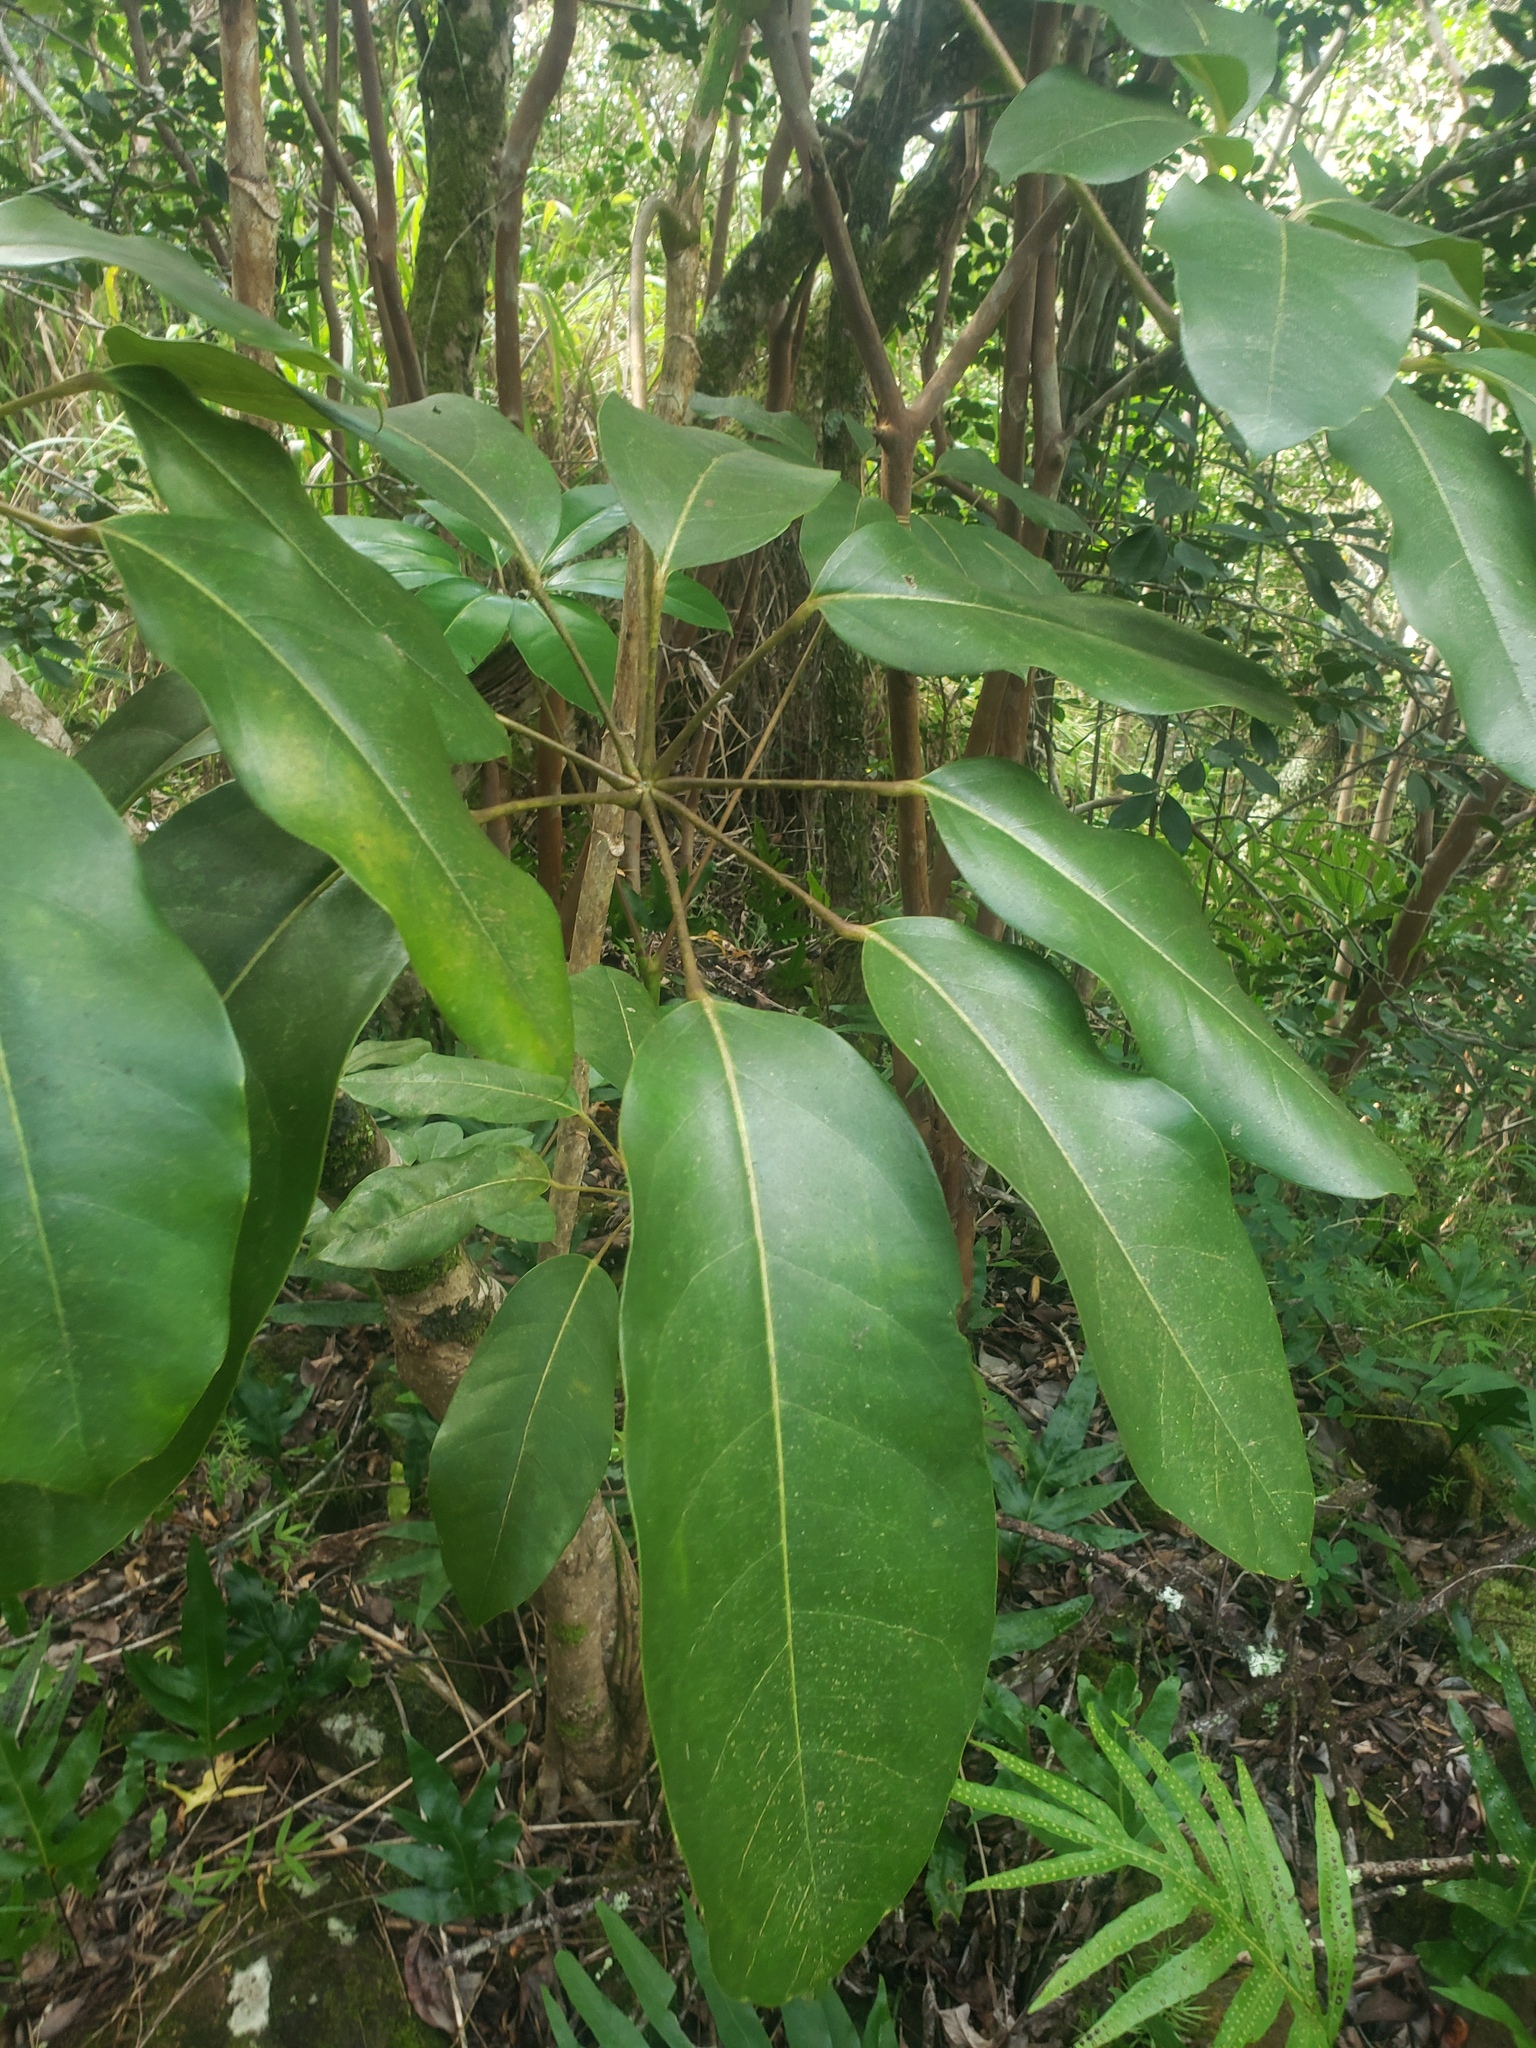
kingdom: Plantae
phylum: Tracheophyta
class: Magnoliopsida
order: Apiales
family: Araliaceae
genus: Heptapleurum
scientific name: Heptapleurum actinophyllum
